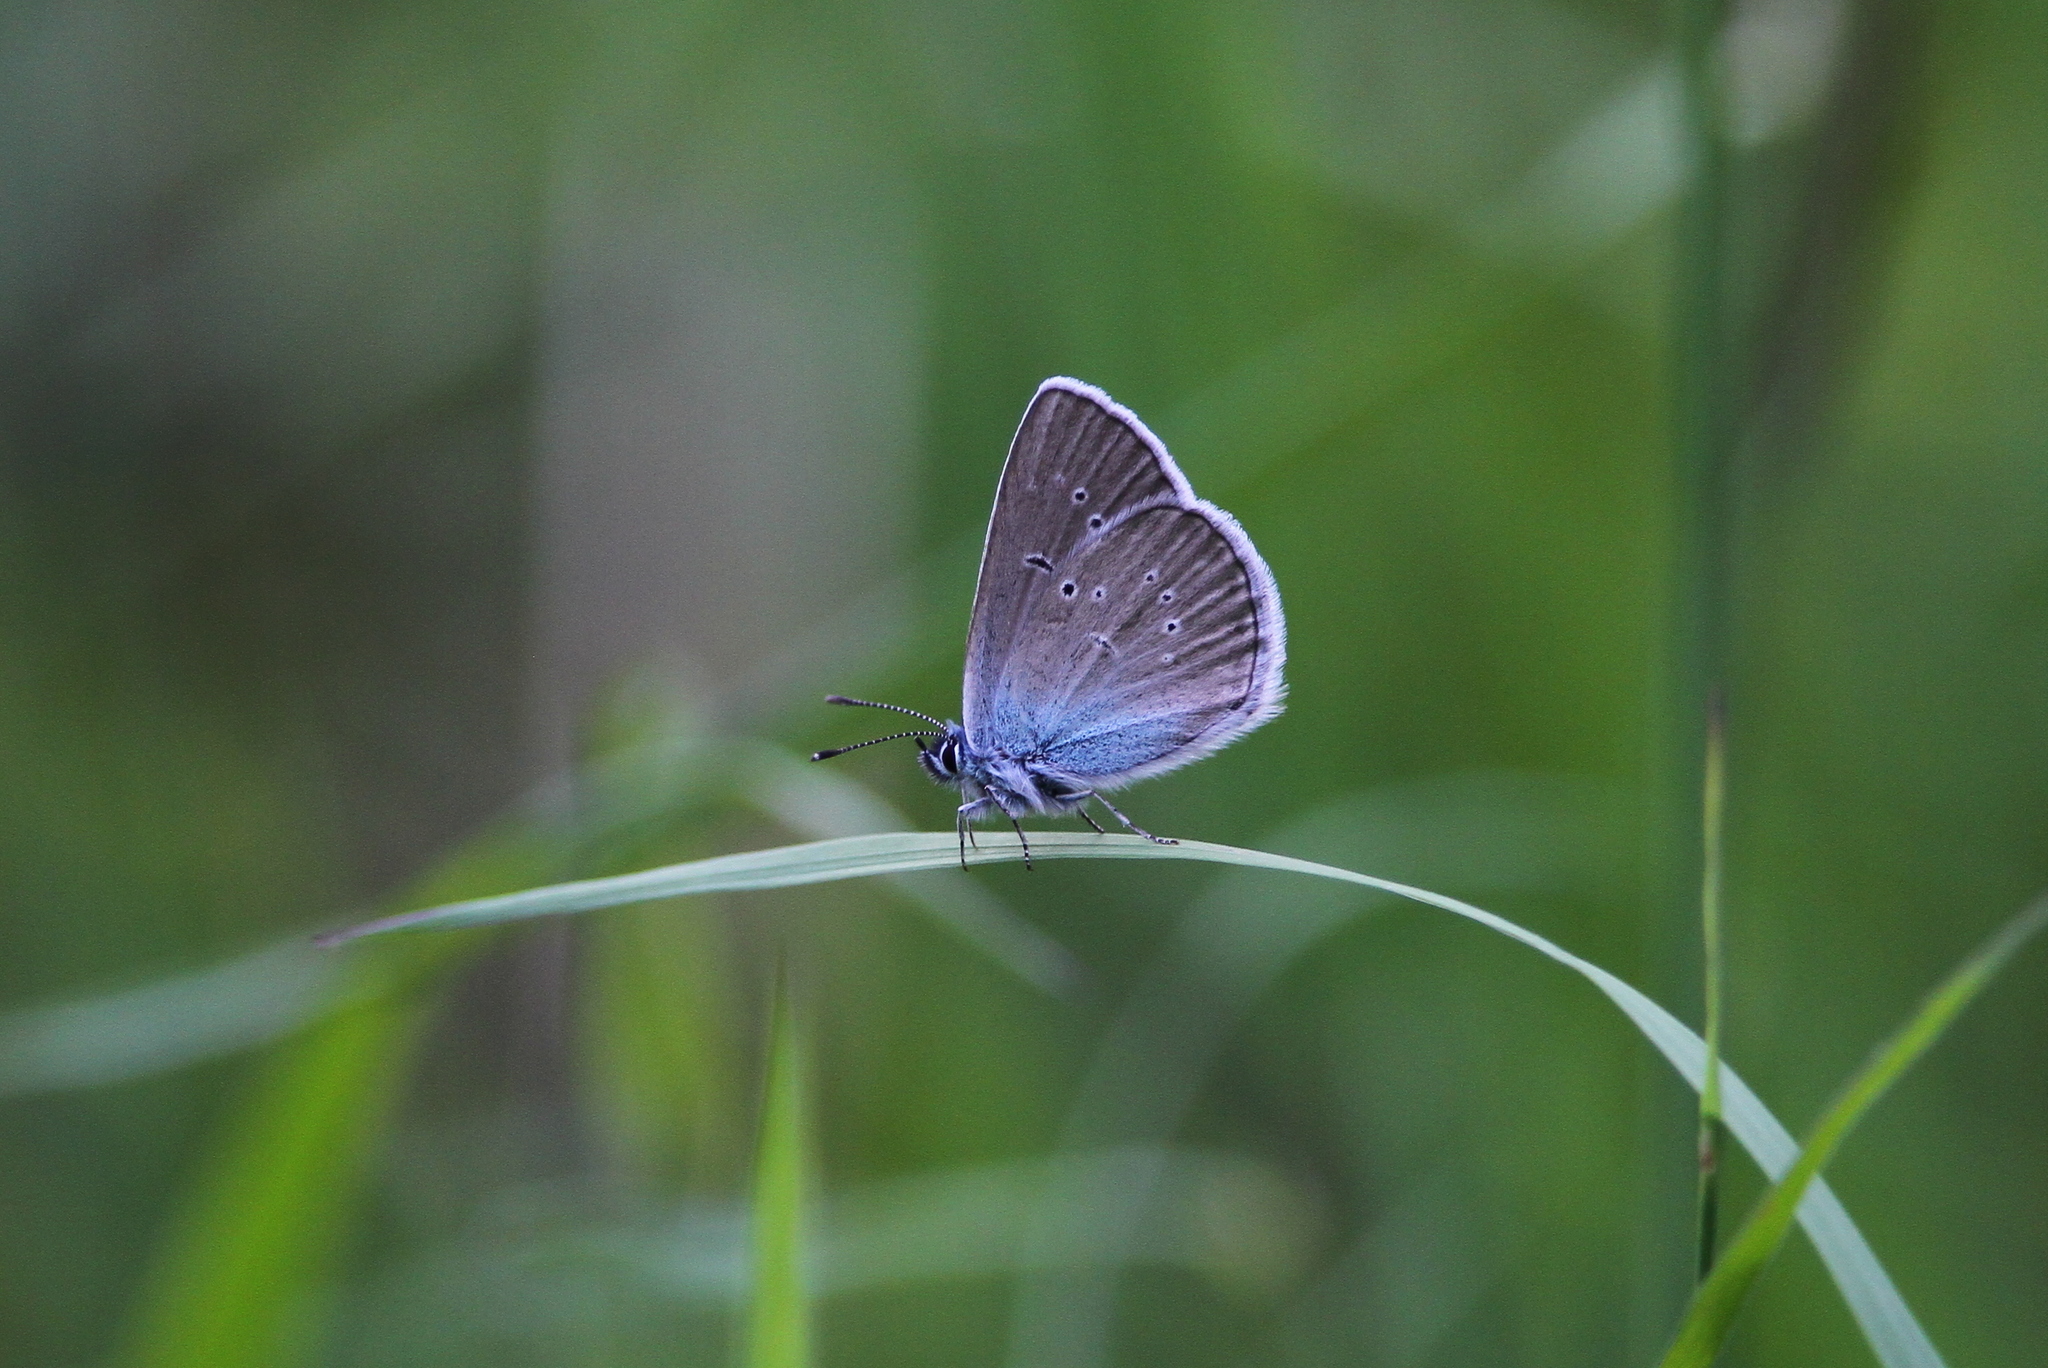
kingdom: Animalia
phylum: Arthropoda
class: Insecta
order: Lepidoptera
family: Lycaenidae
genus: Cyaniris
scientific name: Cyaniris semiargus
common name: Mazarine blue
